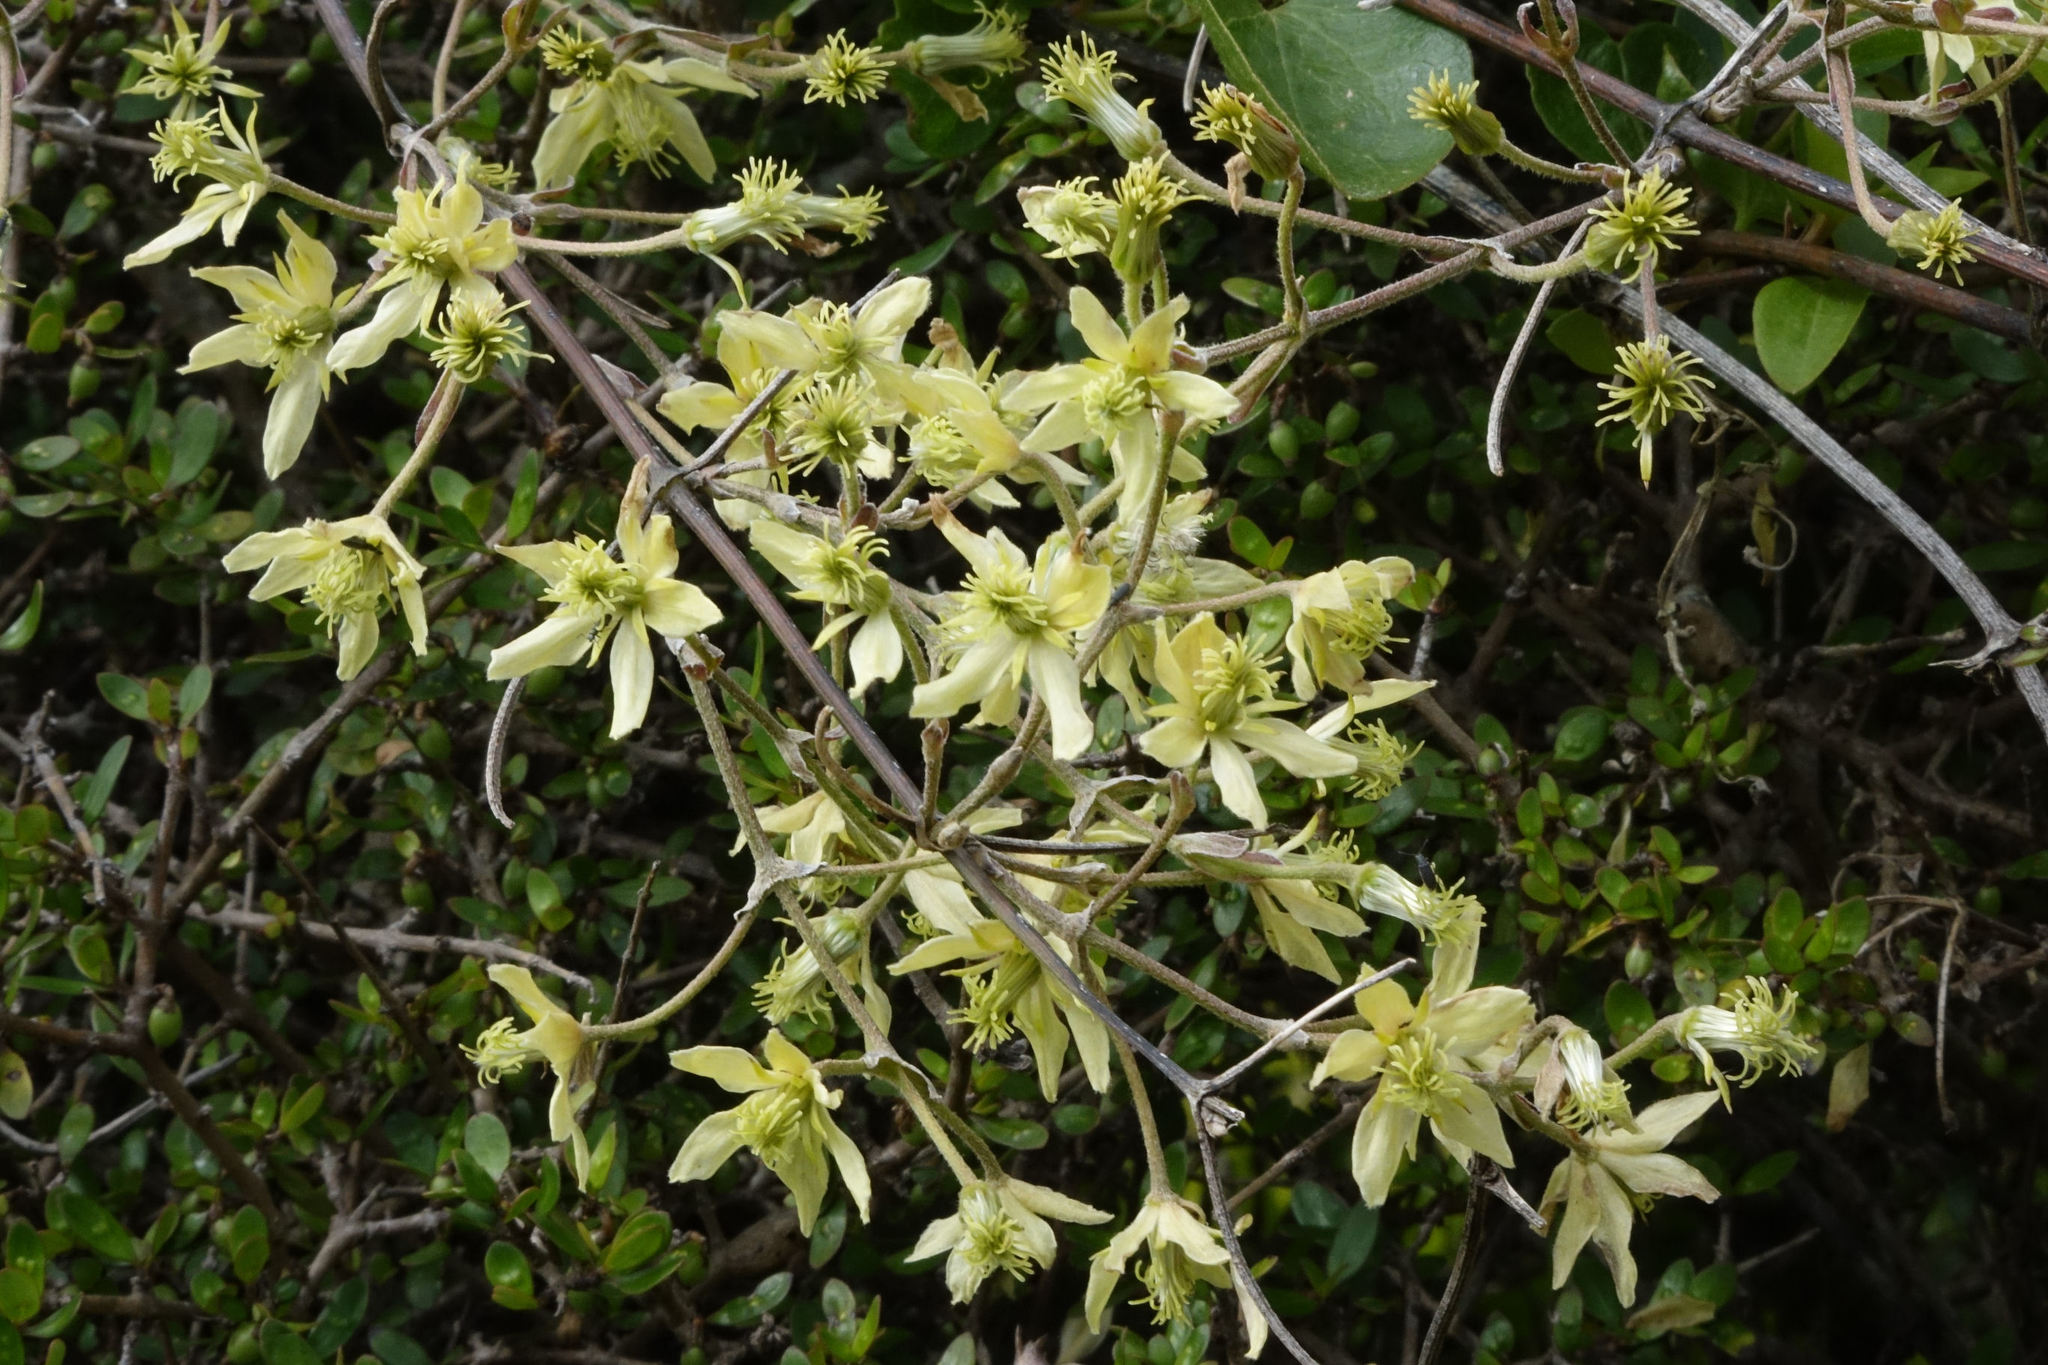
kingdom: Plantae
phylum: Tracheophyta
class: Magnoliopsida
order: Ranunculales
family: Ranunculaceae
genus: Clematis
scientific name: Clematis foetida
